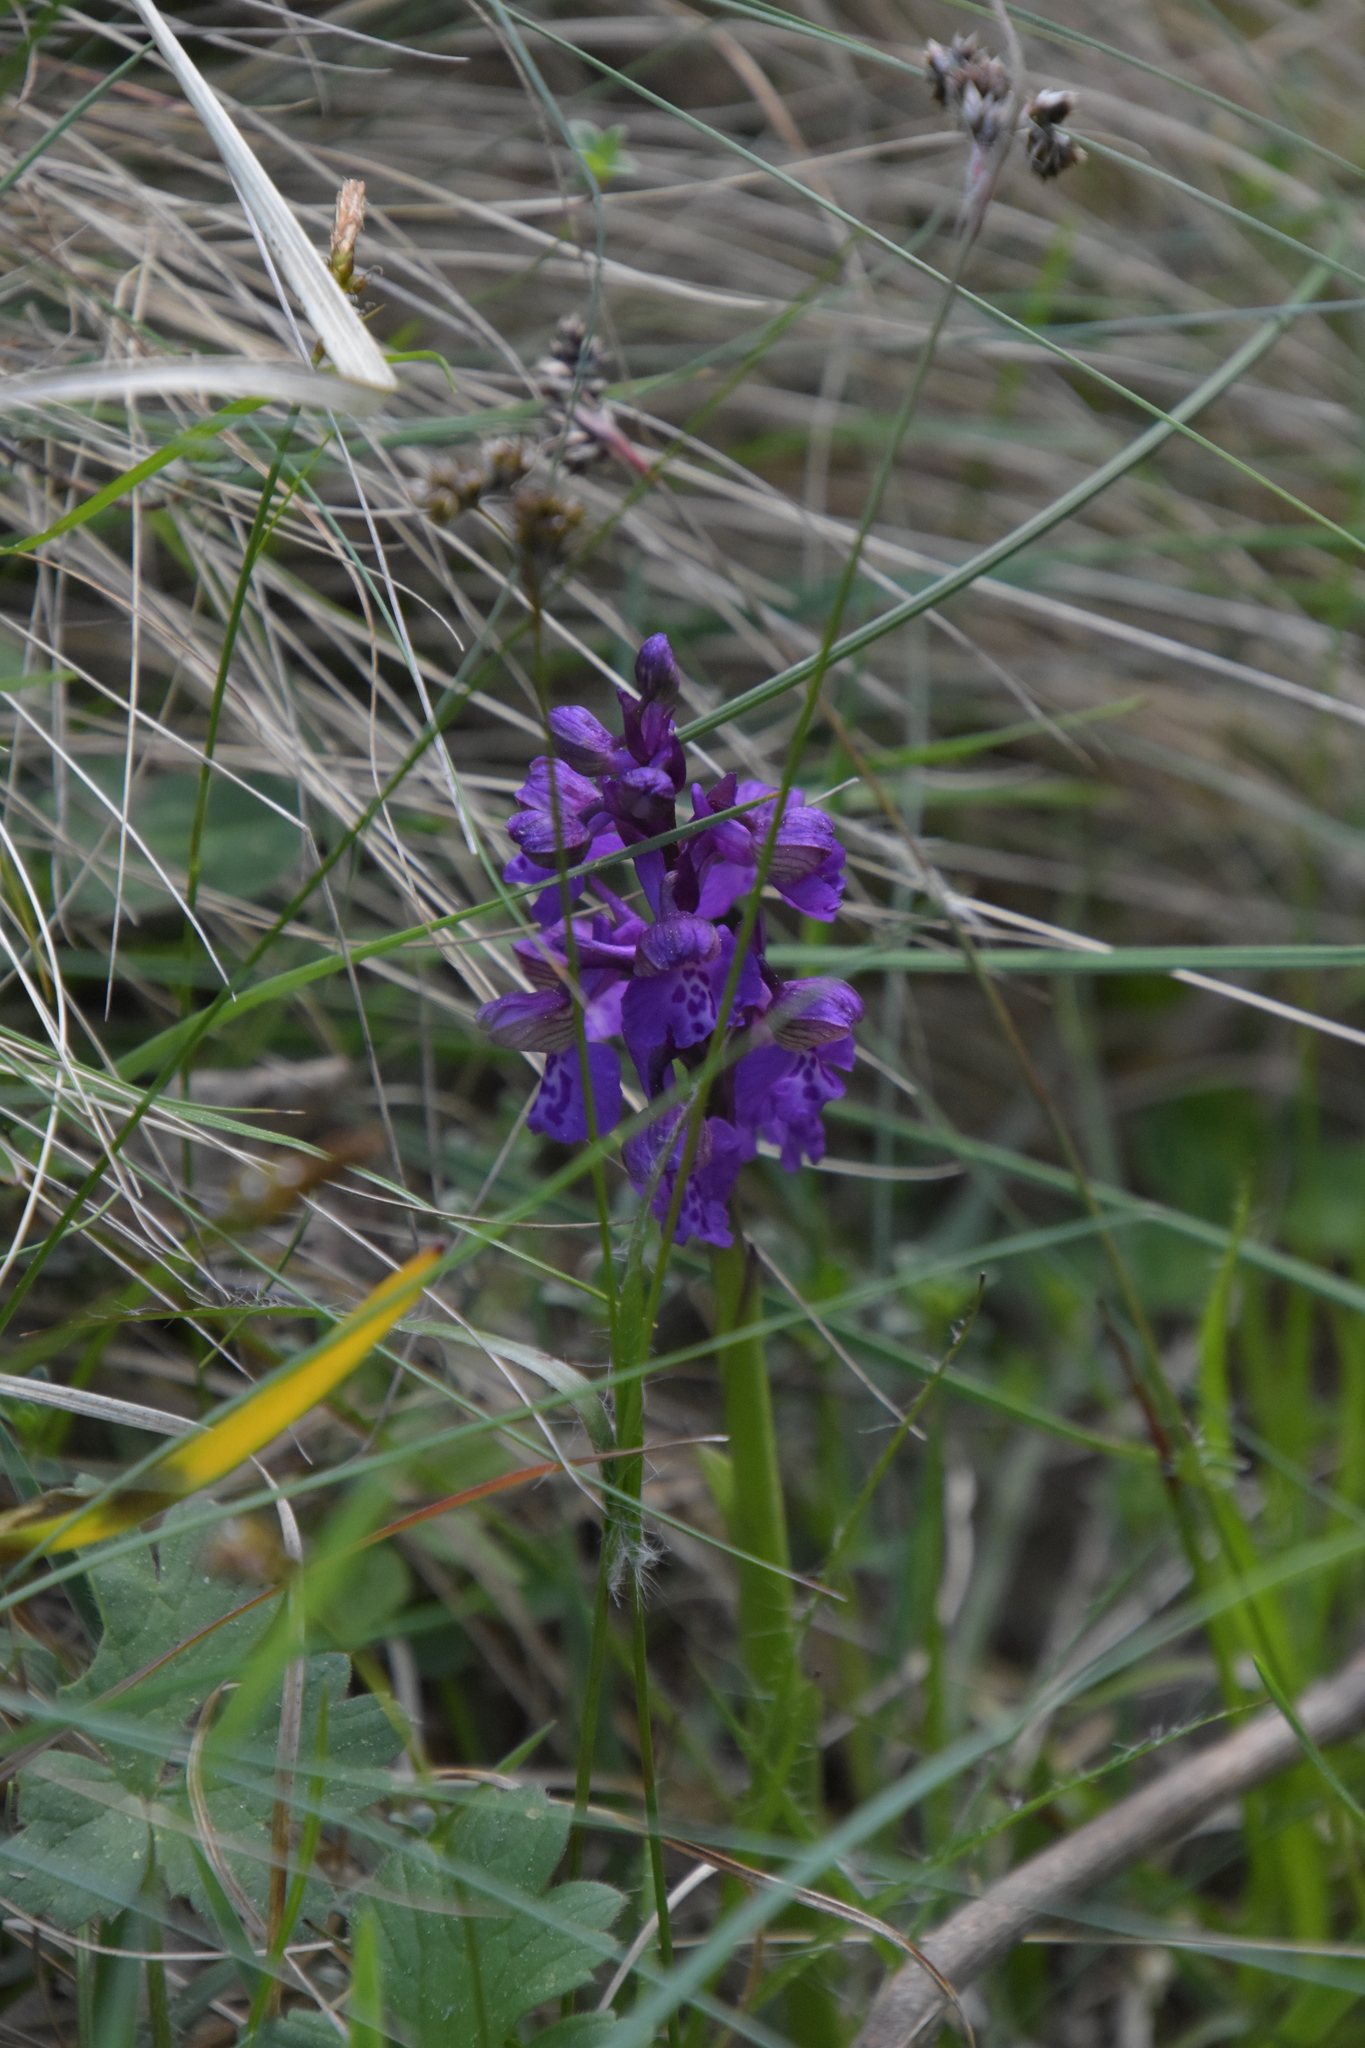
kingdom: Plantae
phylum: Tracheophyta
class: Liliopsida
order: Asparagales
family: Orchidaceae
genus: Anacamptis
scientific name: Anacamptis morio
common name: Green-winged orchid
